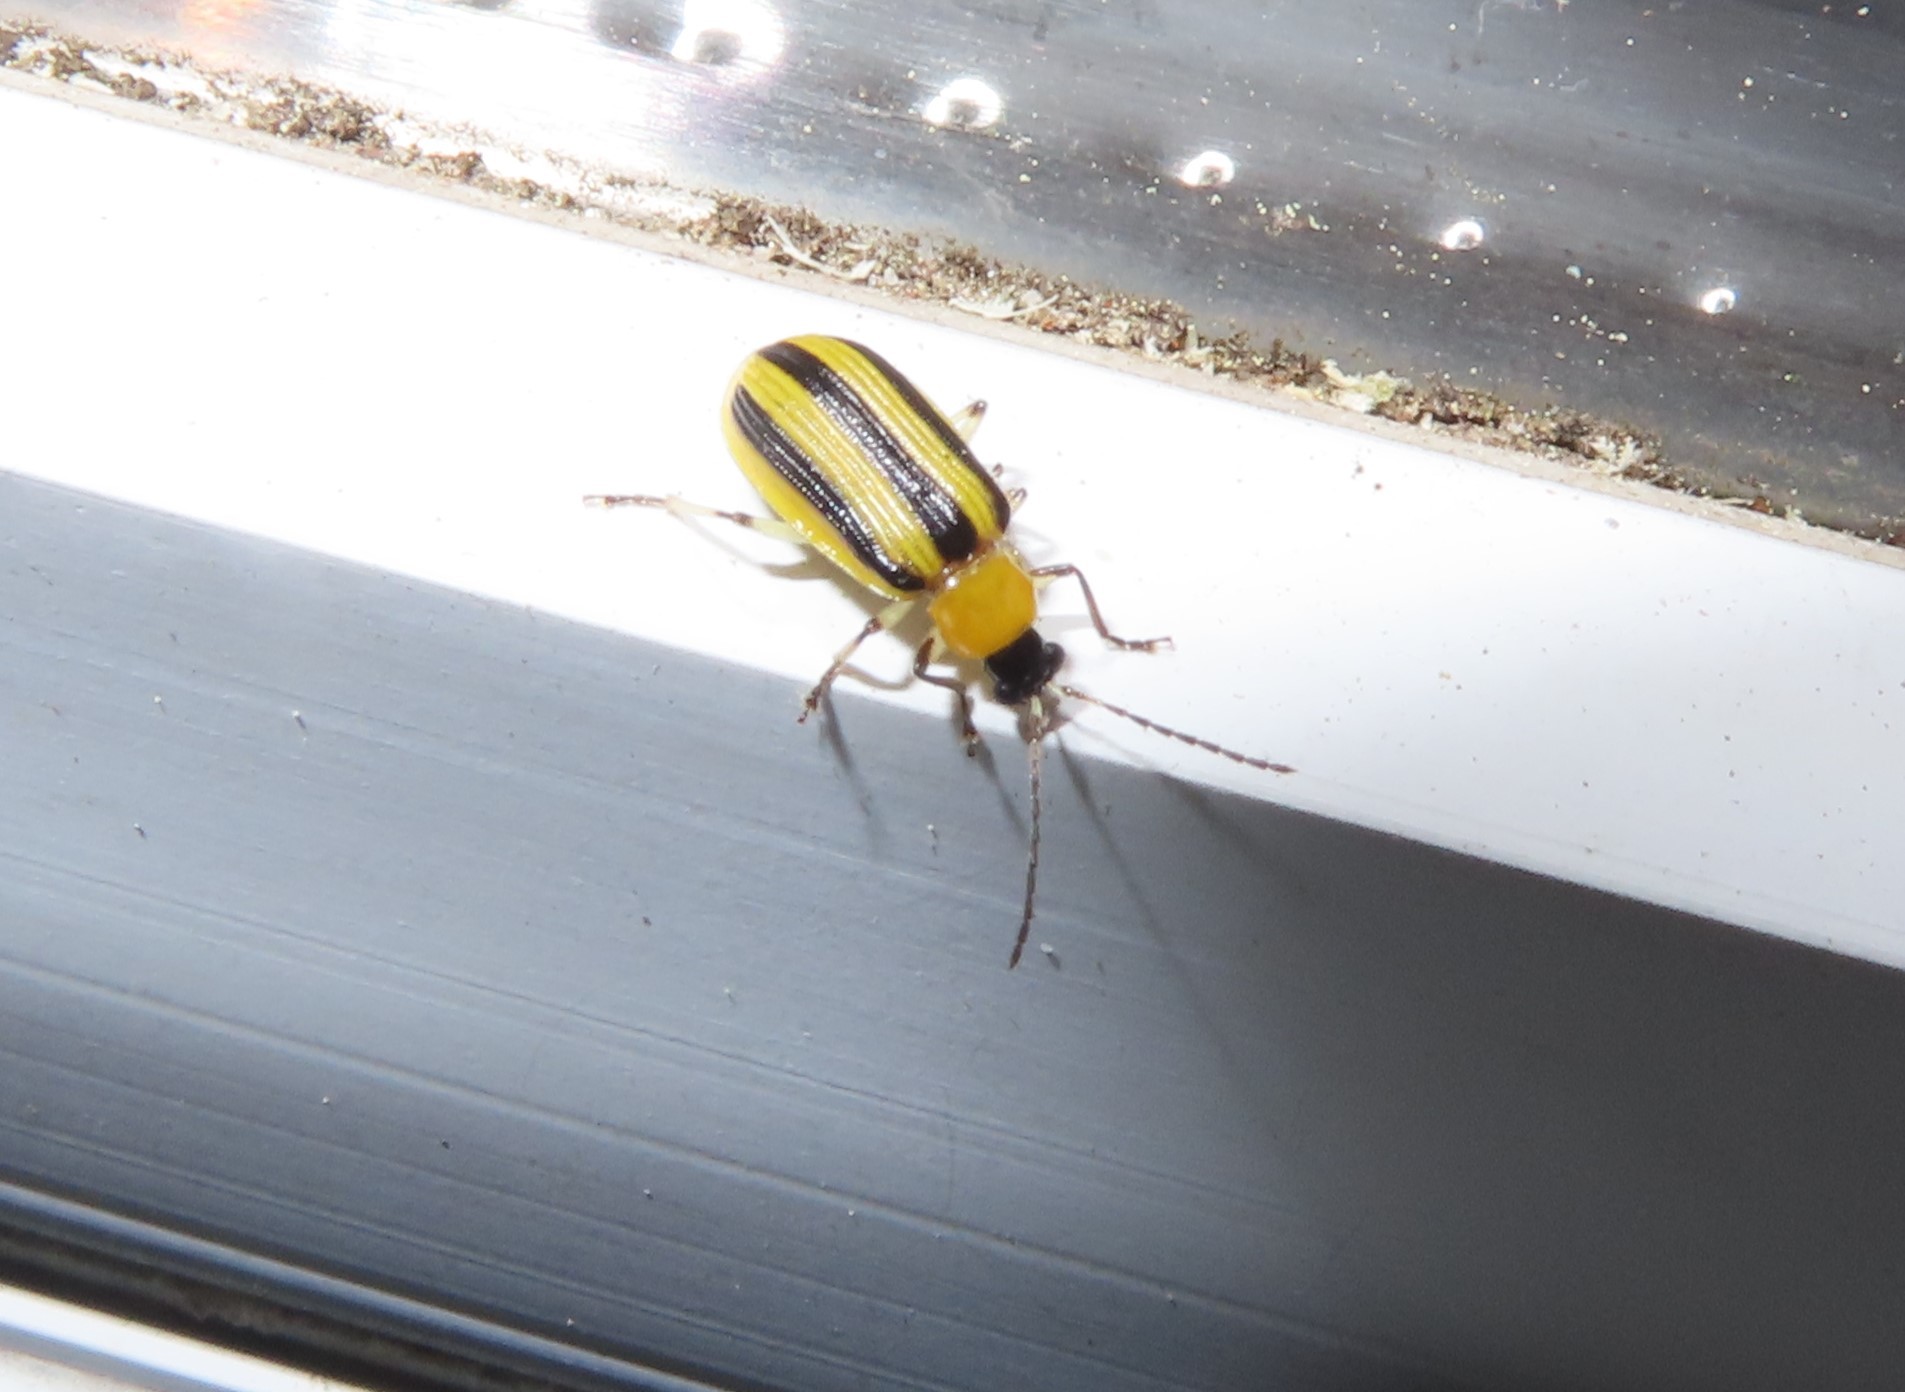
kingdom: Animalia
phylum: Arthropoda
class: Insecta
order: Coleoptera
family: Chrysomelidae
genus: Acalymma
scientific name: Acalymma vittatum
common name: Striped cucumber beetle
